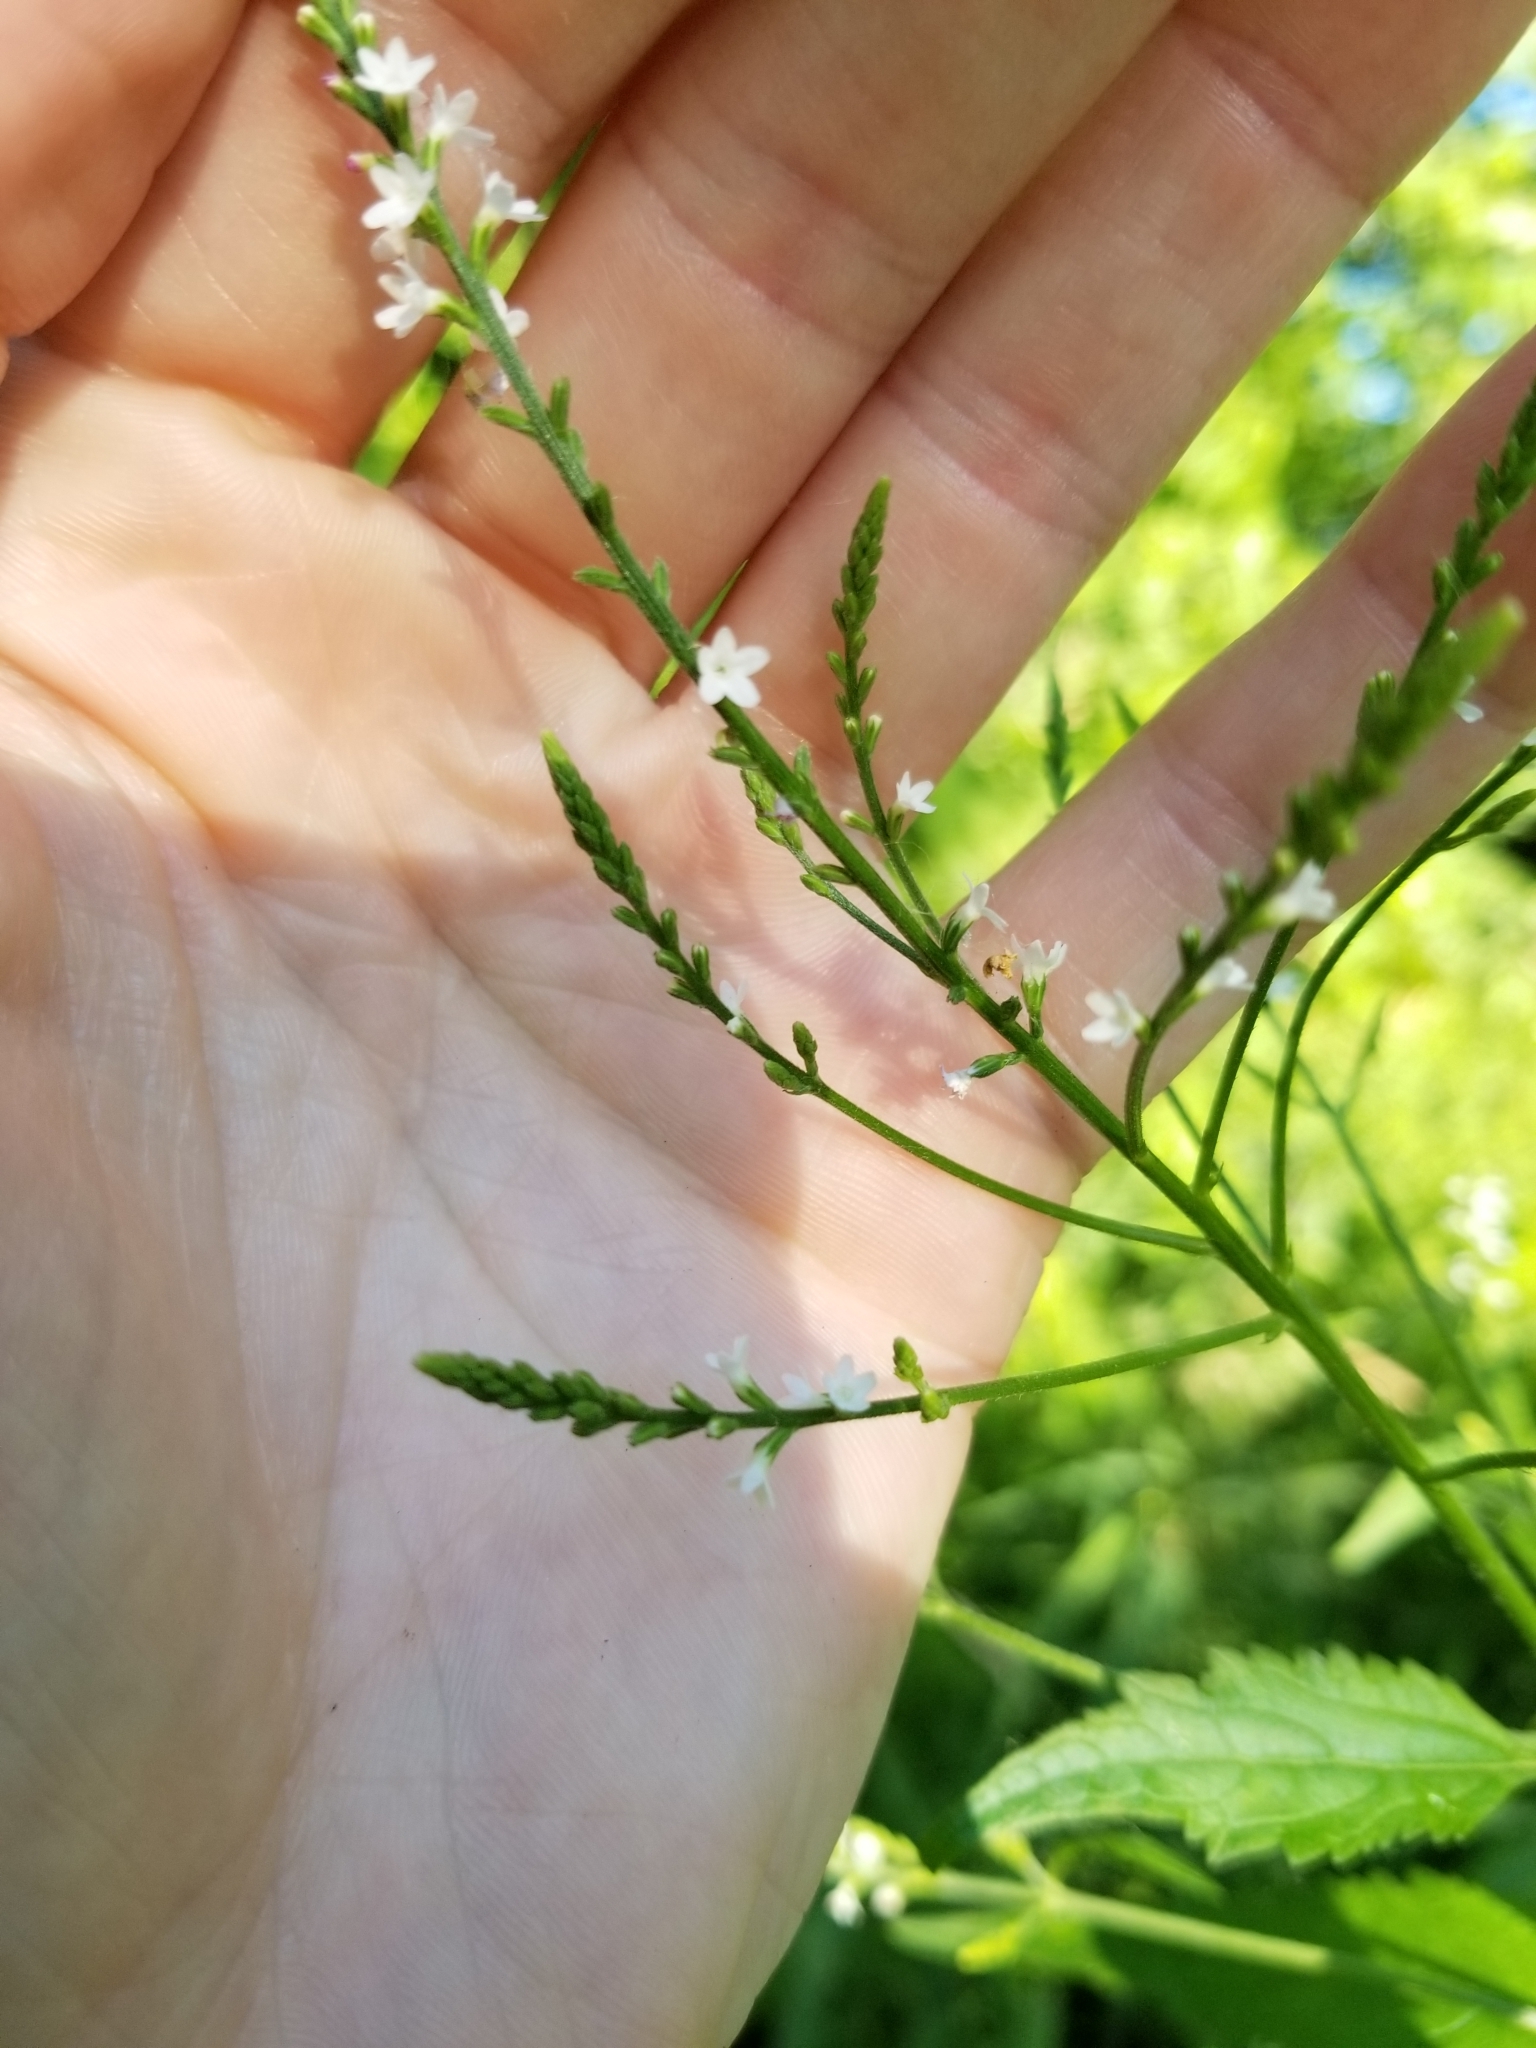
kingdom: Plantae
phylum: Tracheophyta
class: Magnoliopsida
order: Lamiales
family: Verbenaceae
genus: Verbena
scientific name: Verbena urticifolia
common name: Nettle-leaved vervain
